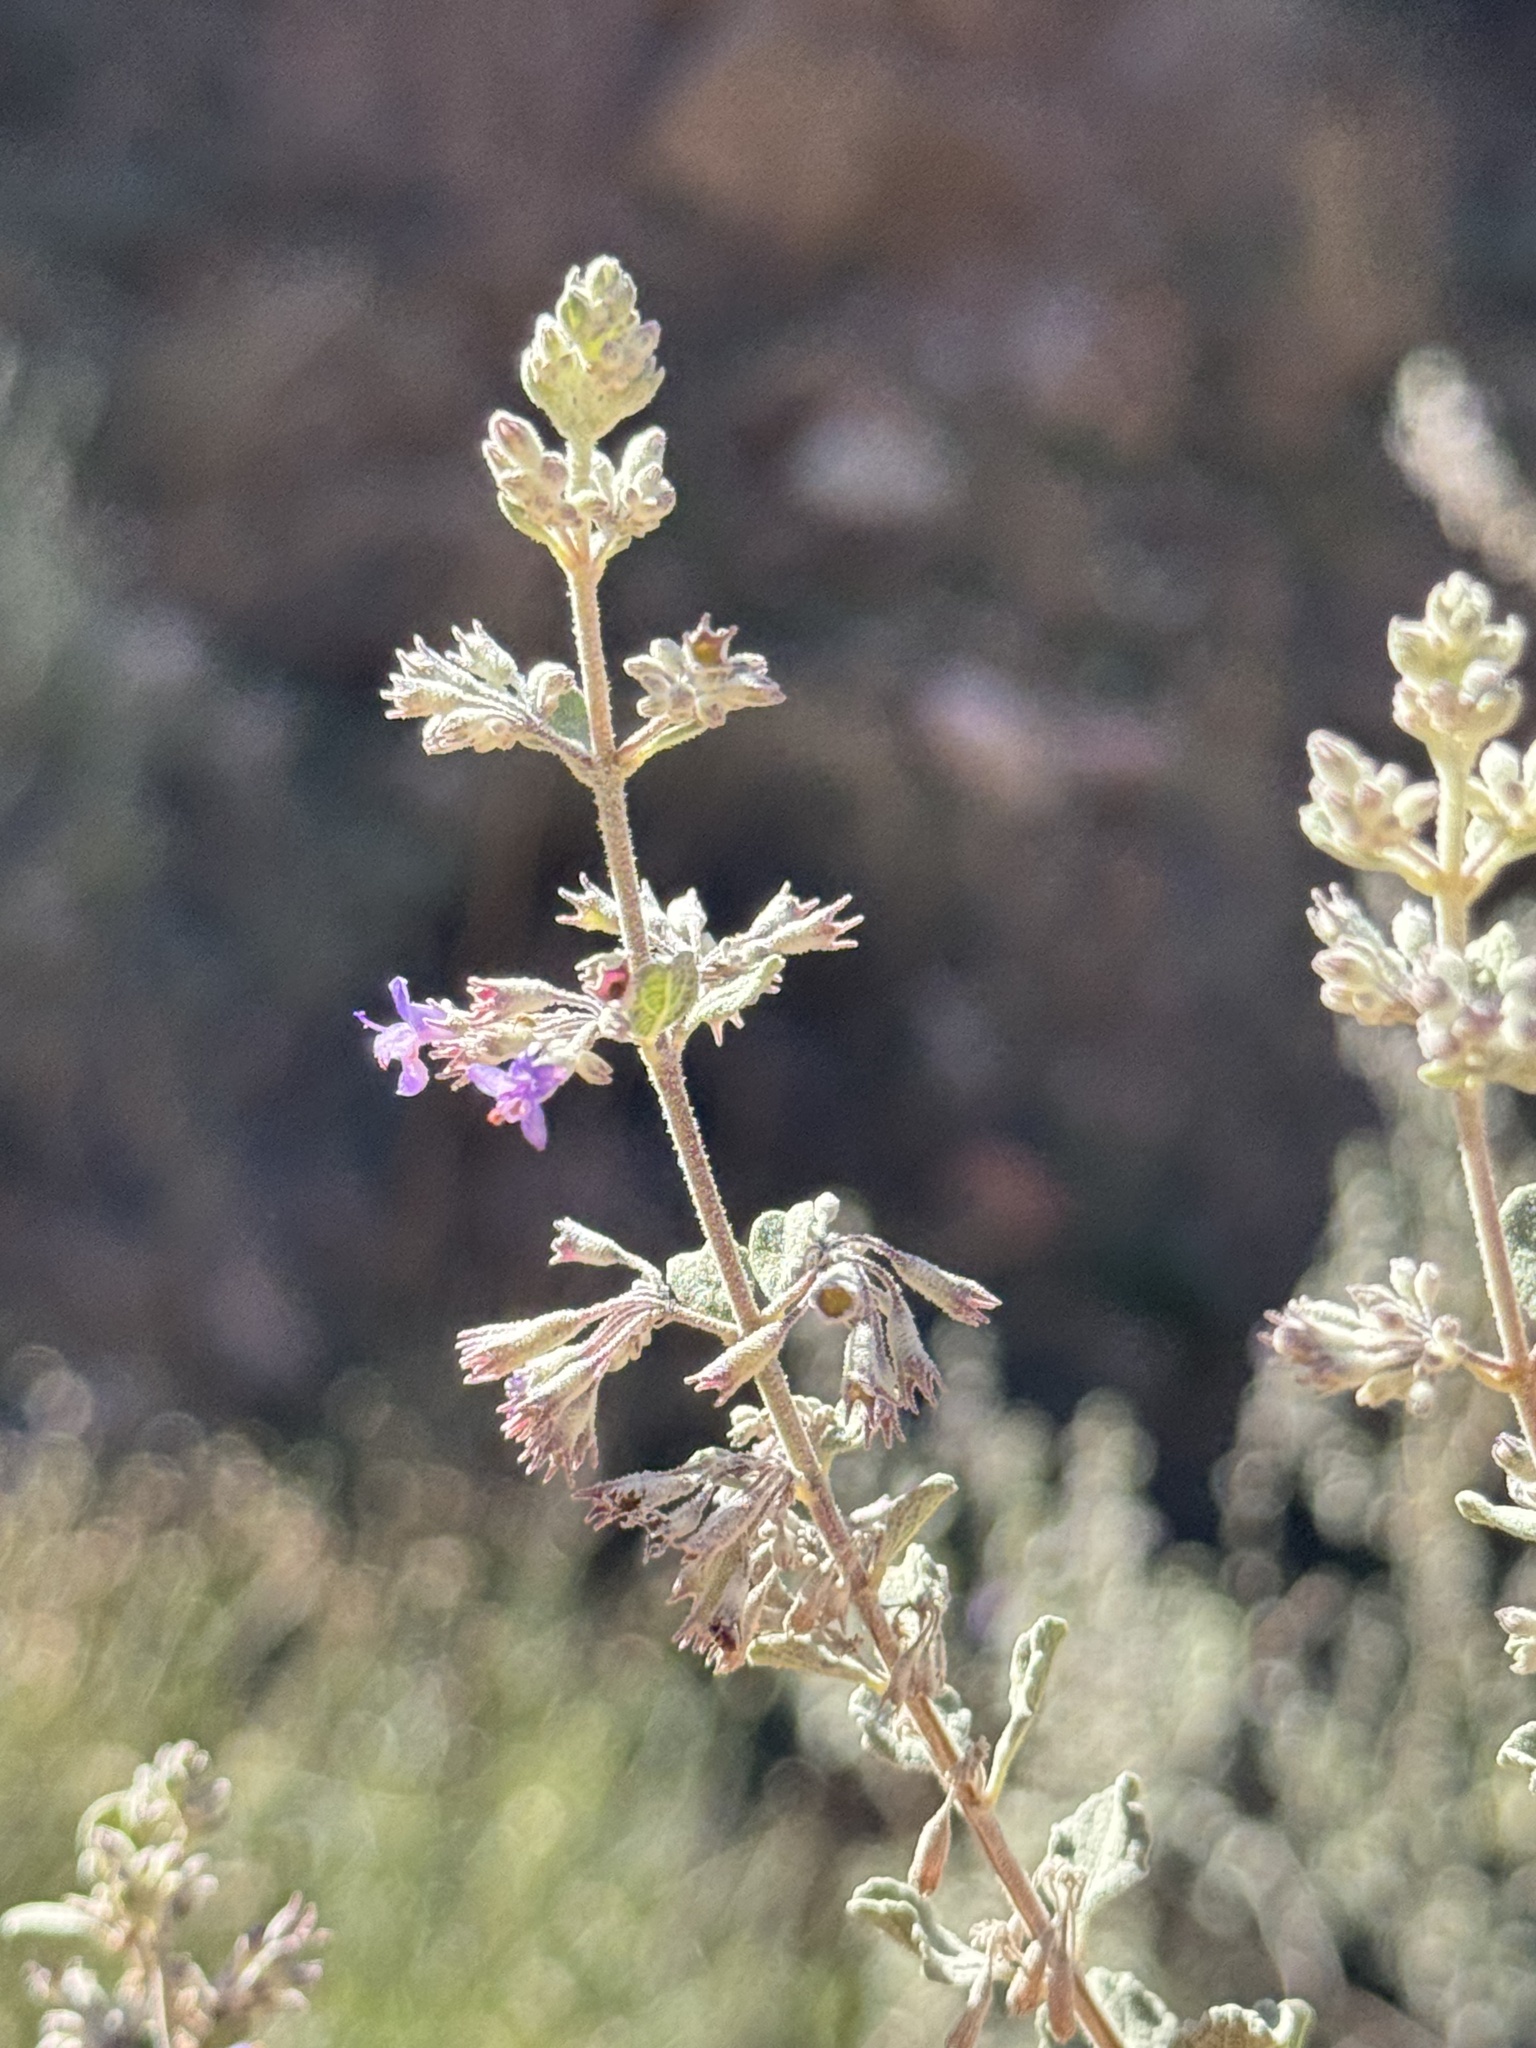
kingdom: Plantae
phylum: Tracheophyta
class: Magnoliopsida
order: Lamiales
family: Lamiaceae
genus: Condea
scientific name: Condea emoryi
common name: Chia
